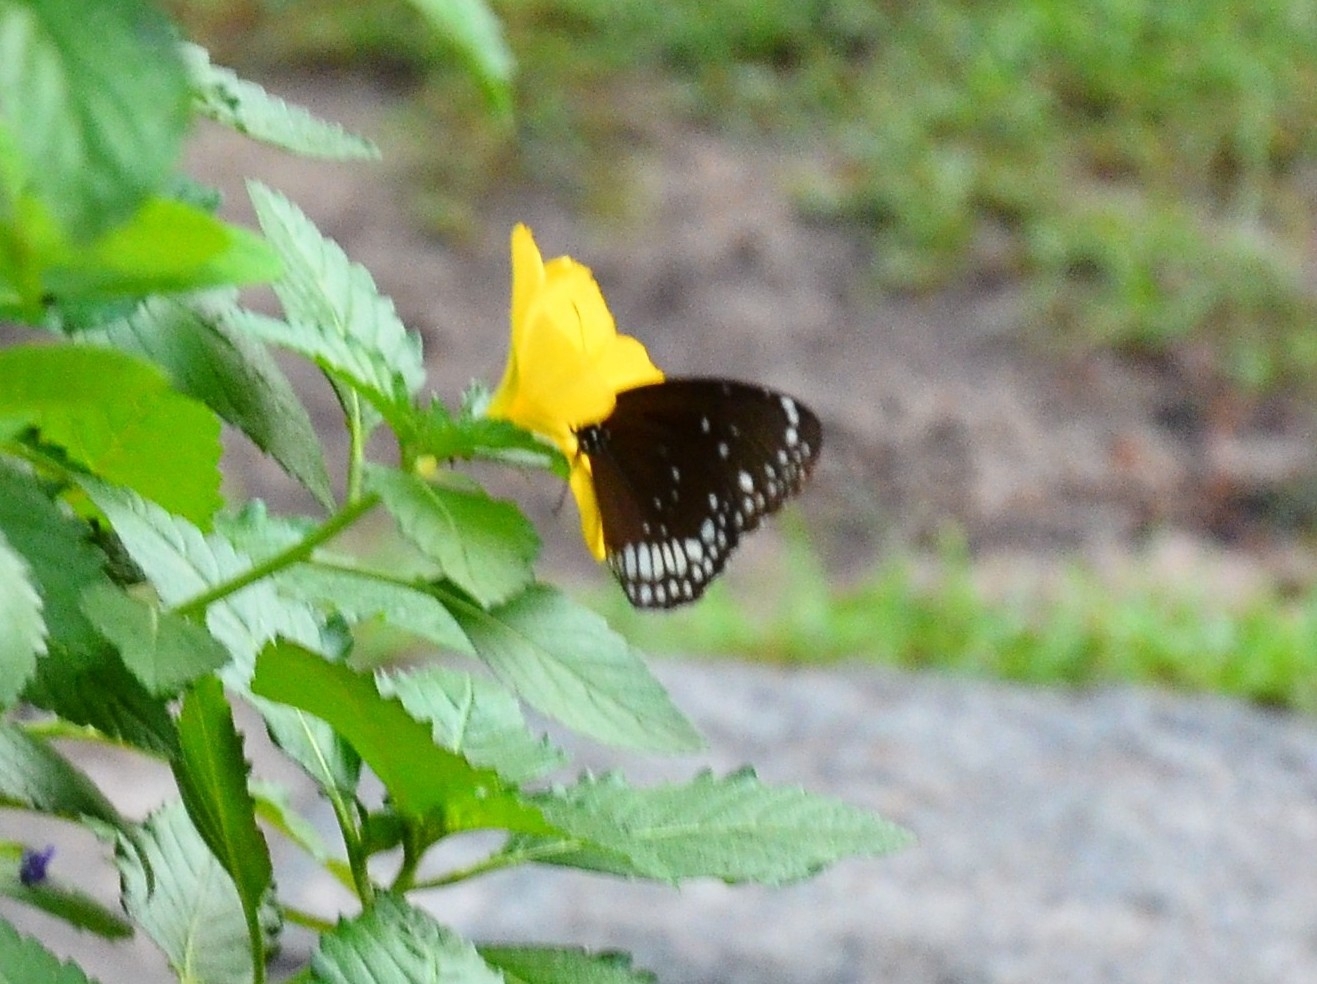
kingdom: Animalia
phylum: Arthropoda
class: Insecta
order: Lepidoptera
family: Nymphalidae
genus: Euploea
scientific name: Euploea core
